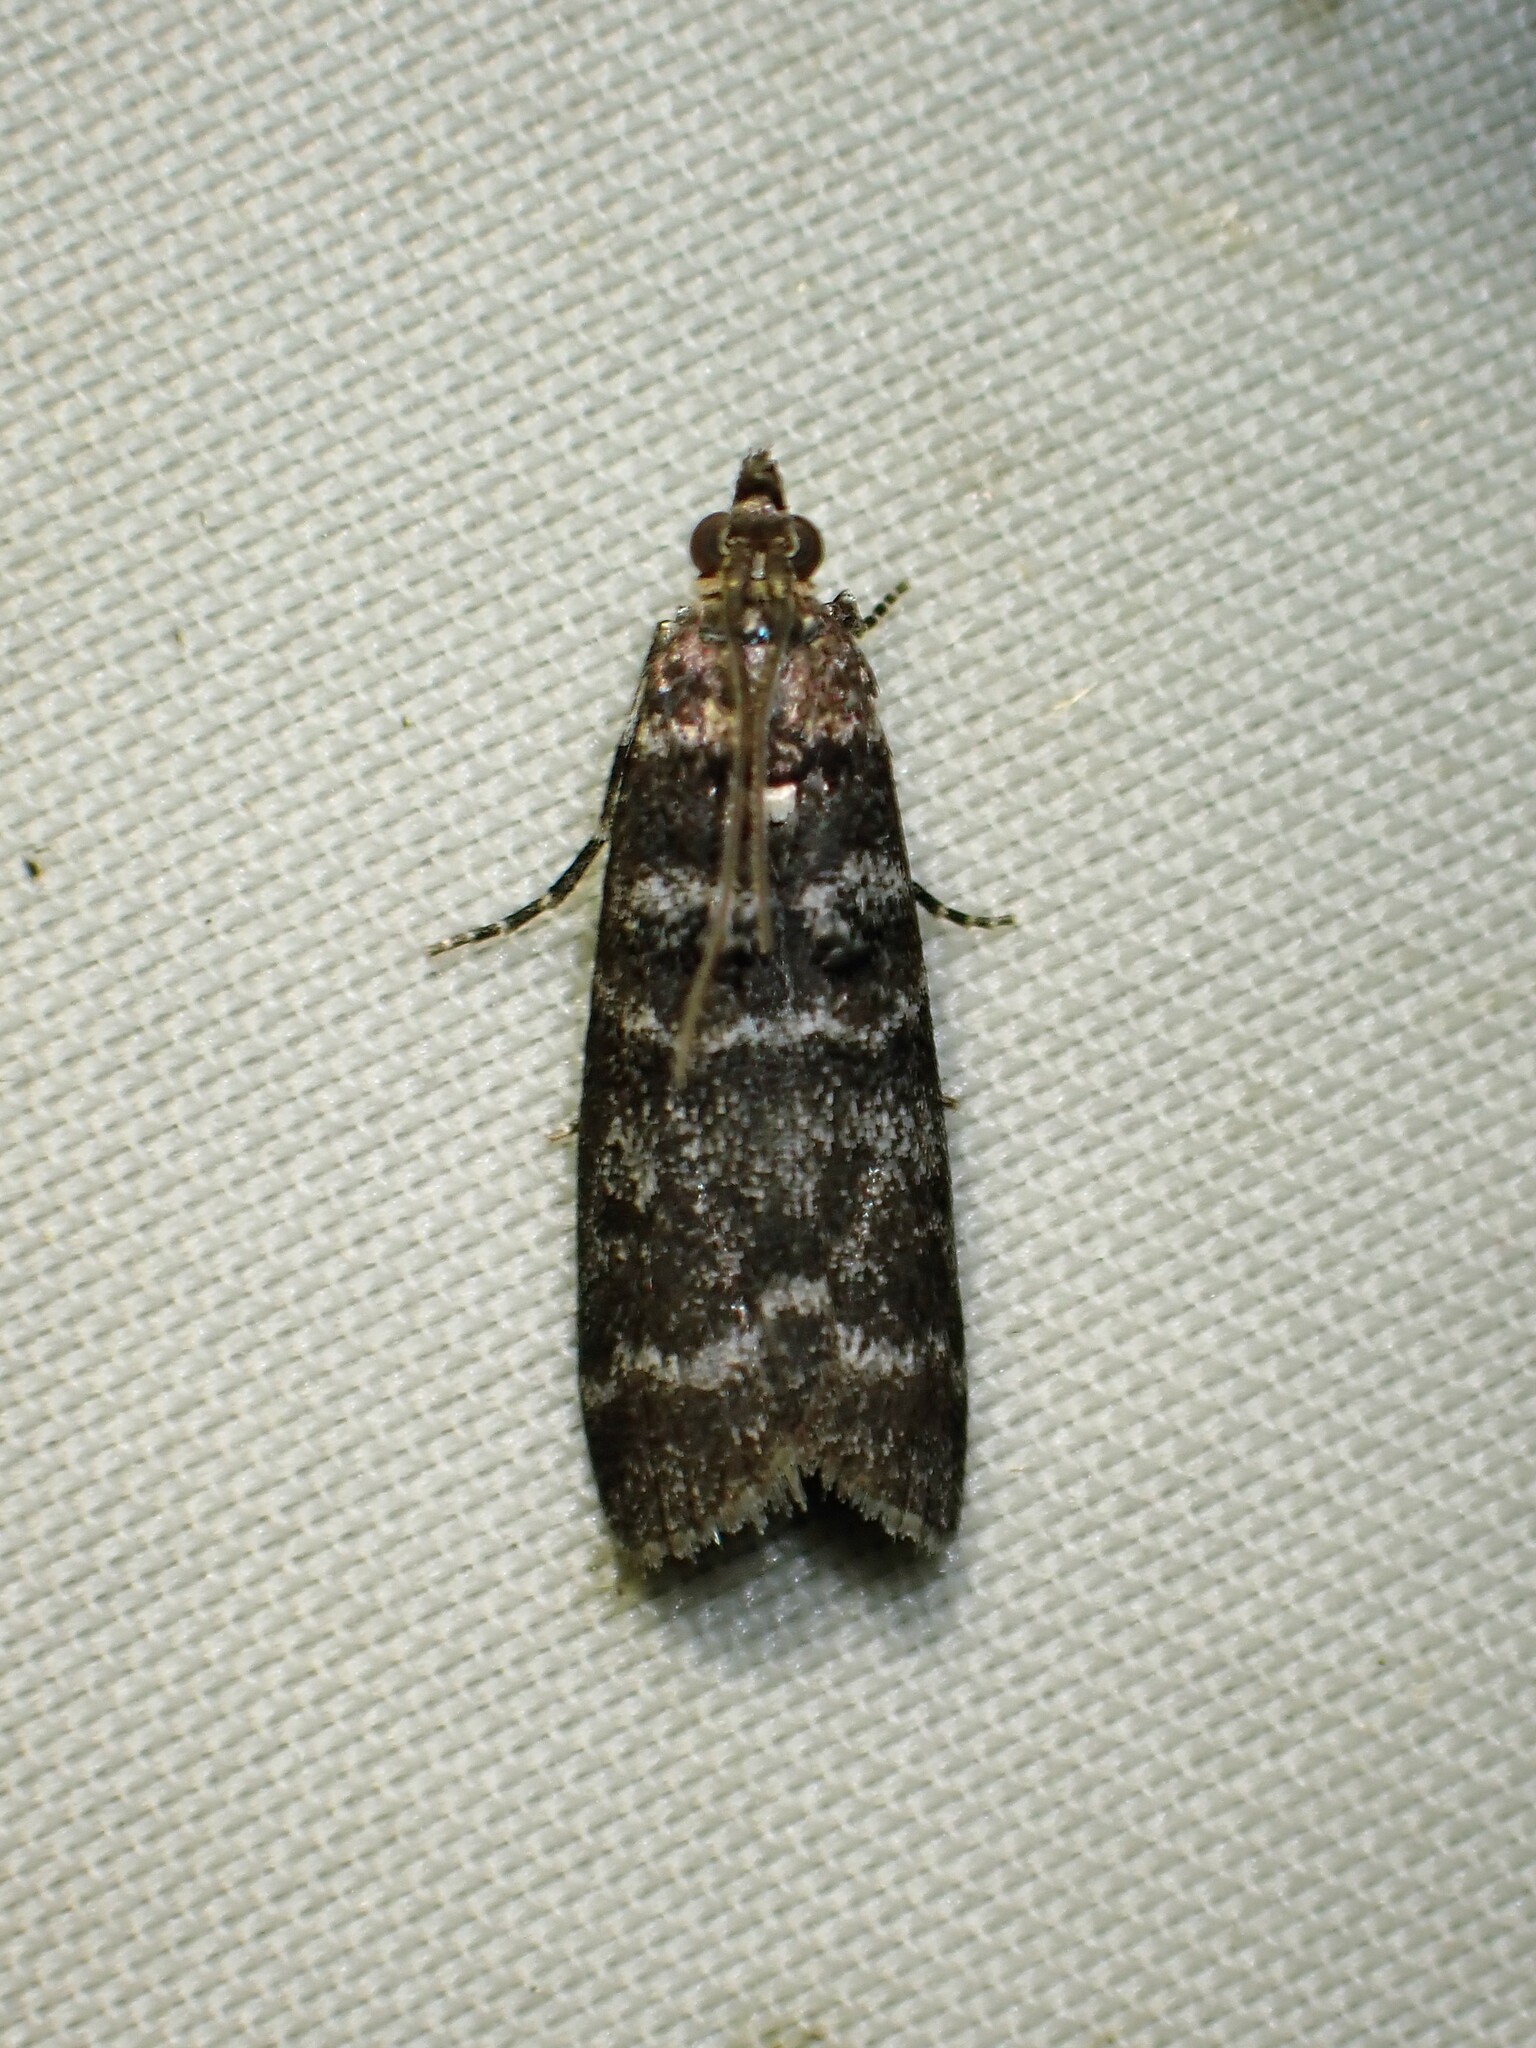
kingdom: Animalia
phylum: Arthropoda
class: Insecta
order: Lepidoptera
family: Pyralidae
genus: Ortholepis
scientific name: Ortholepis pasadamia
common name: Striped birch pyralid moth
